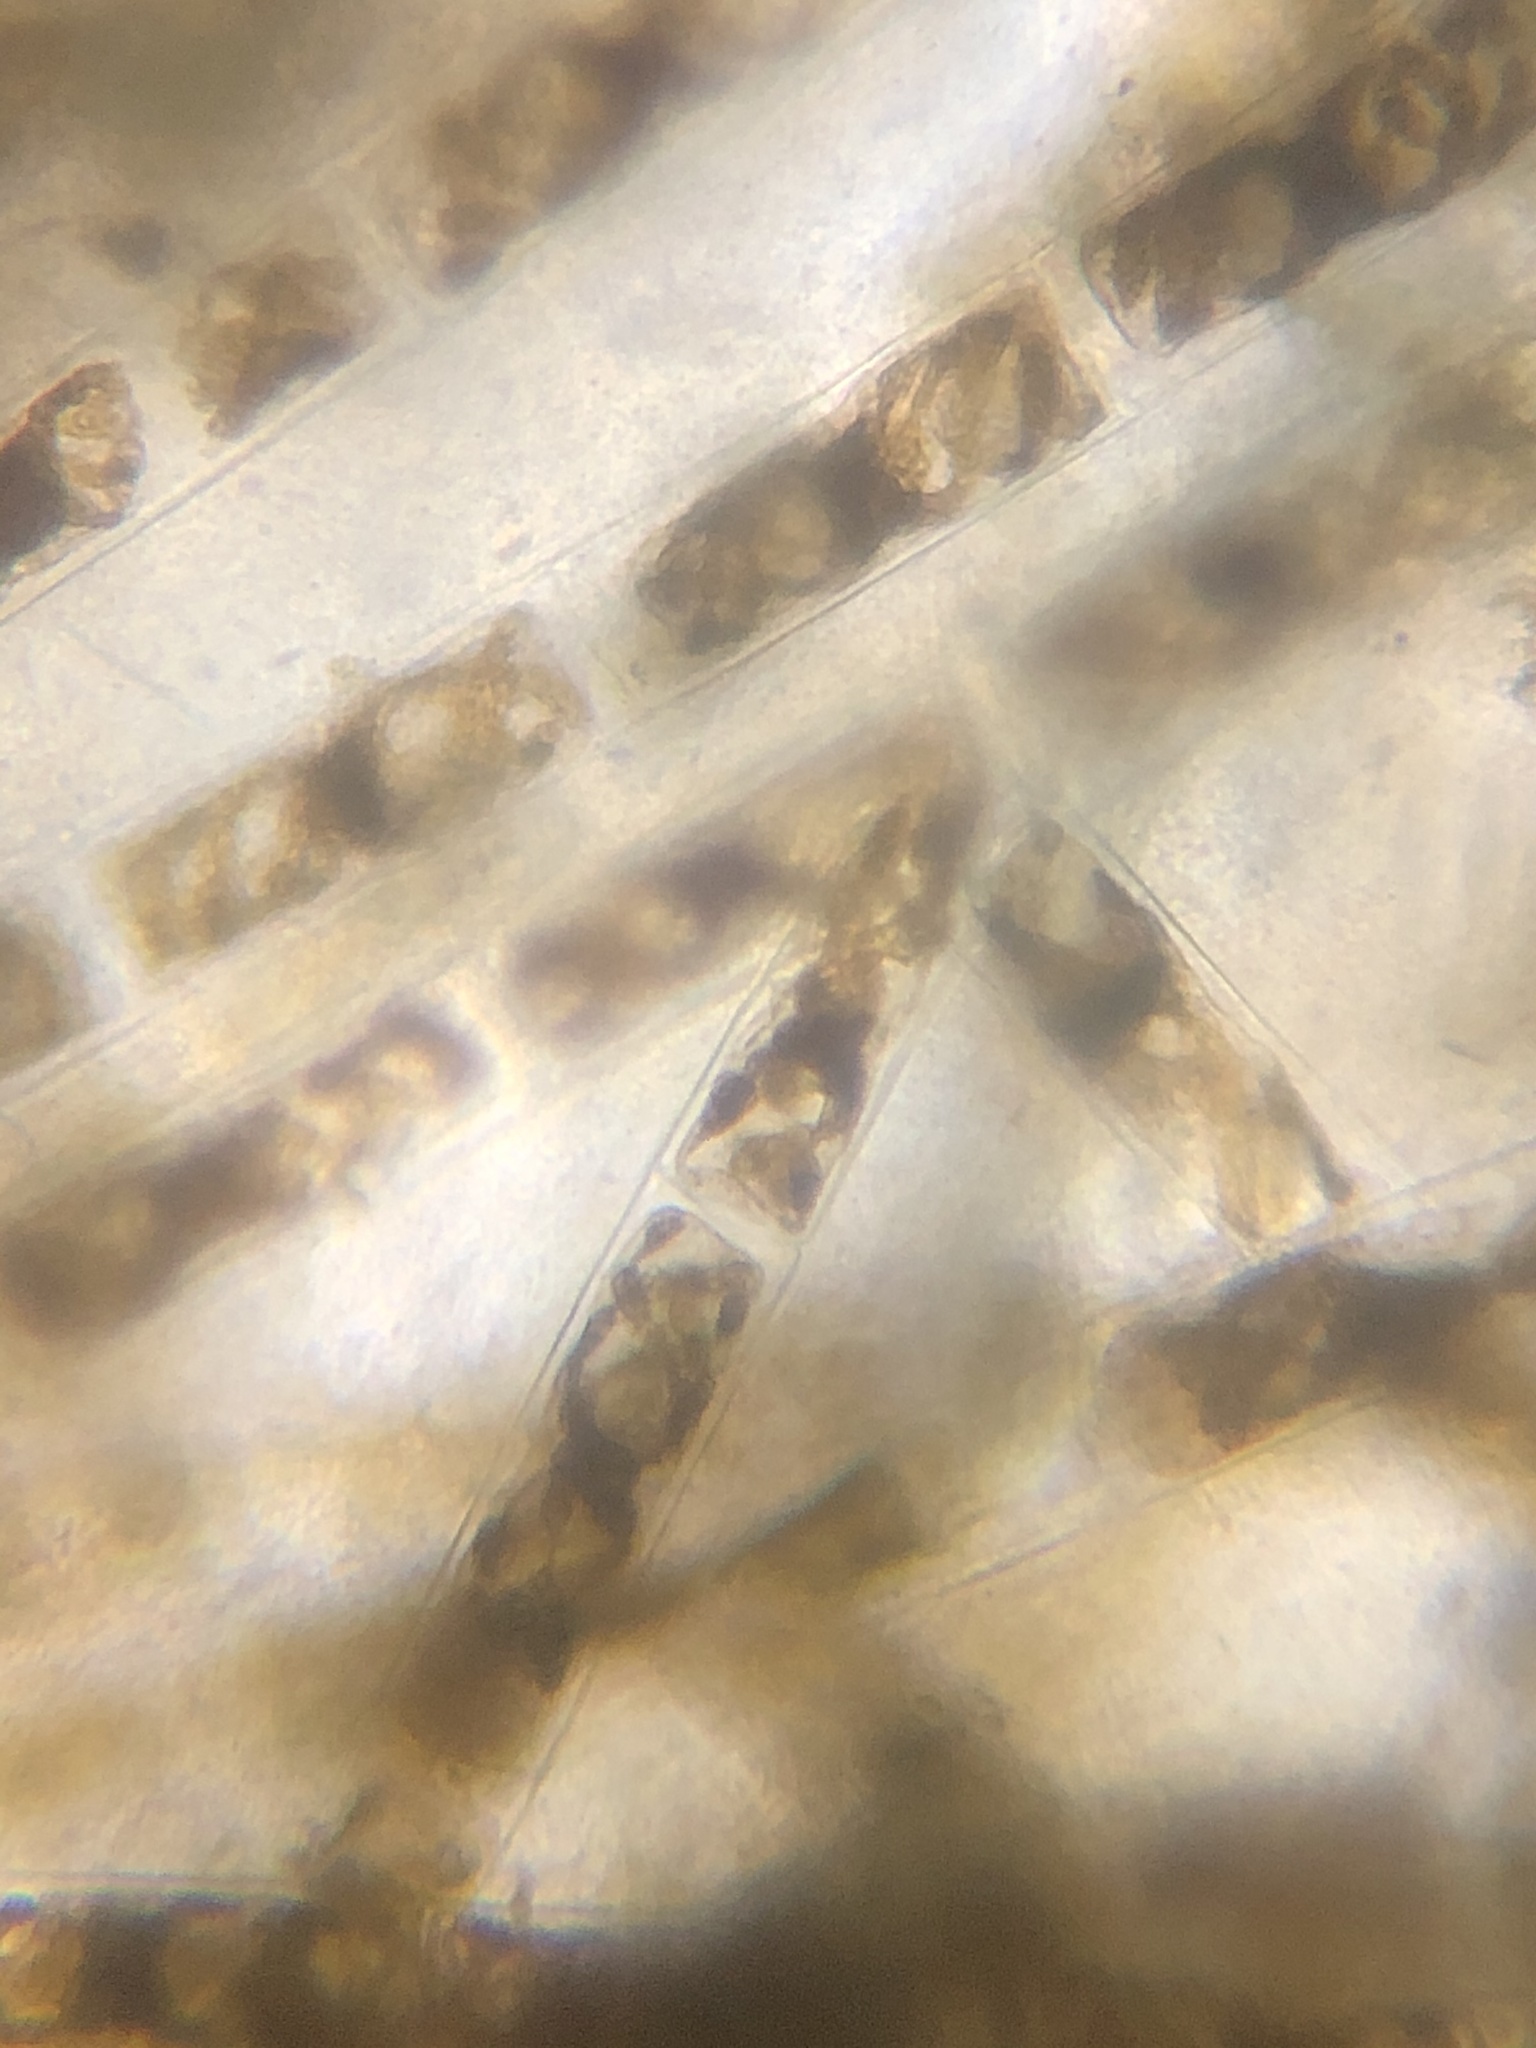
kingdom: Plantae
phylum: Charophyta
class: Zygnematophyceae
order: Zygnematales
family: Zygnemataceae
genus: Spirogyra
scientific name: Spirogyra
